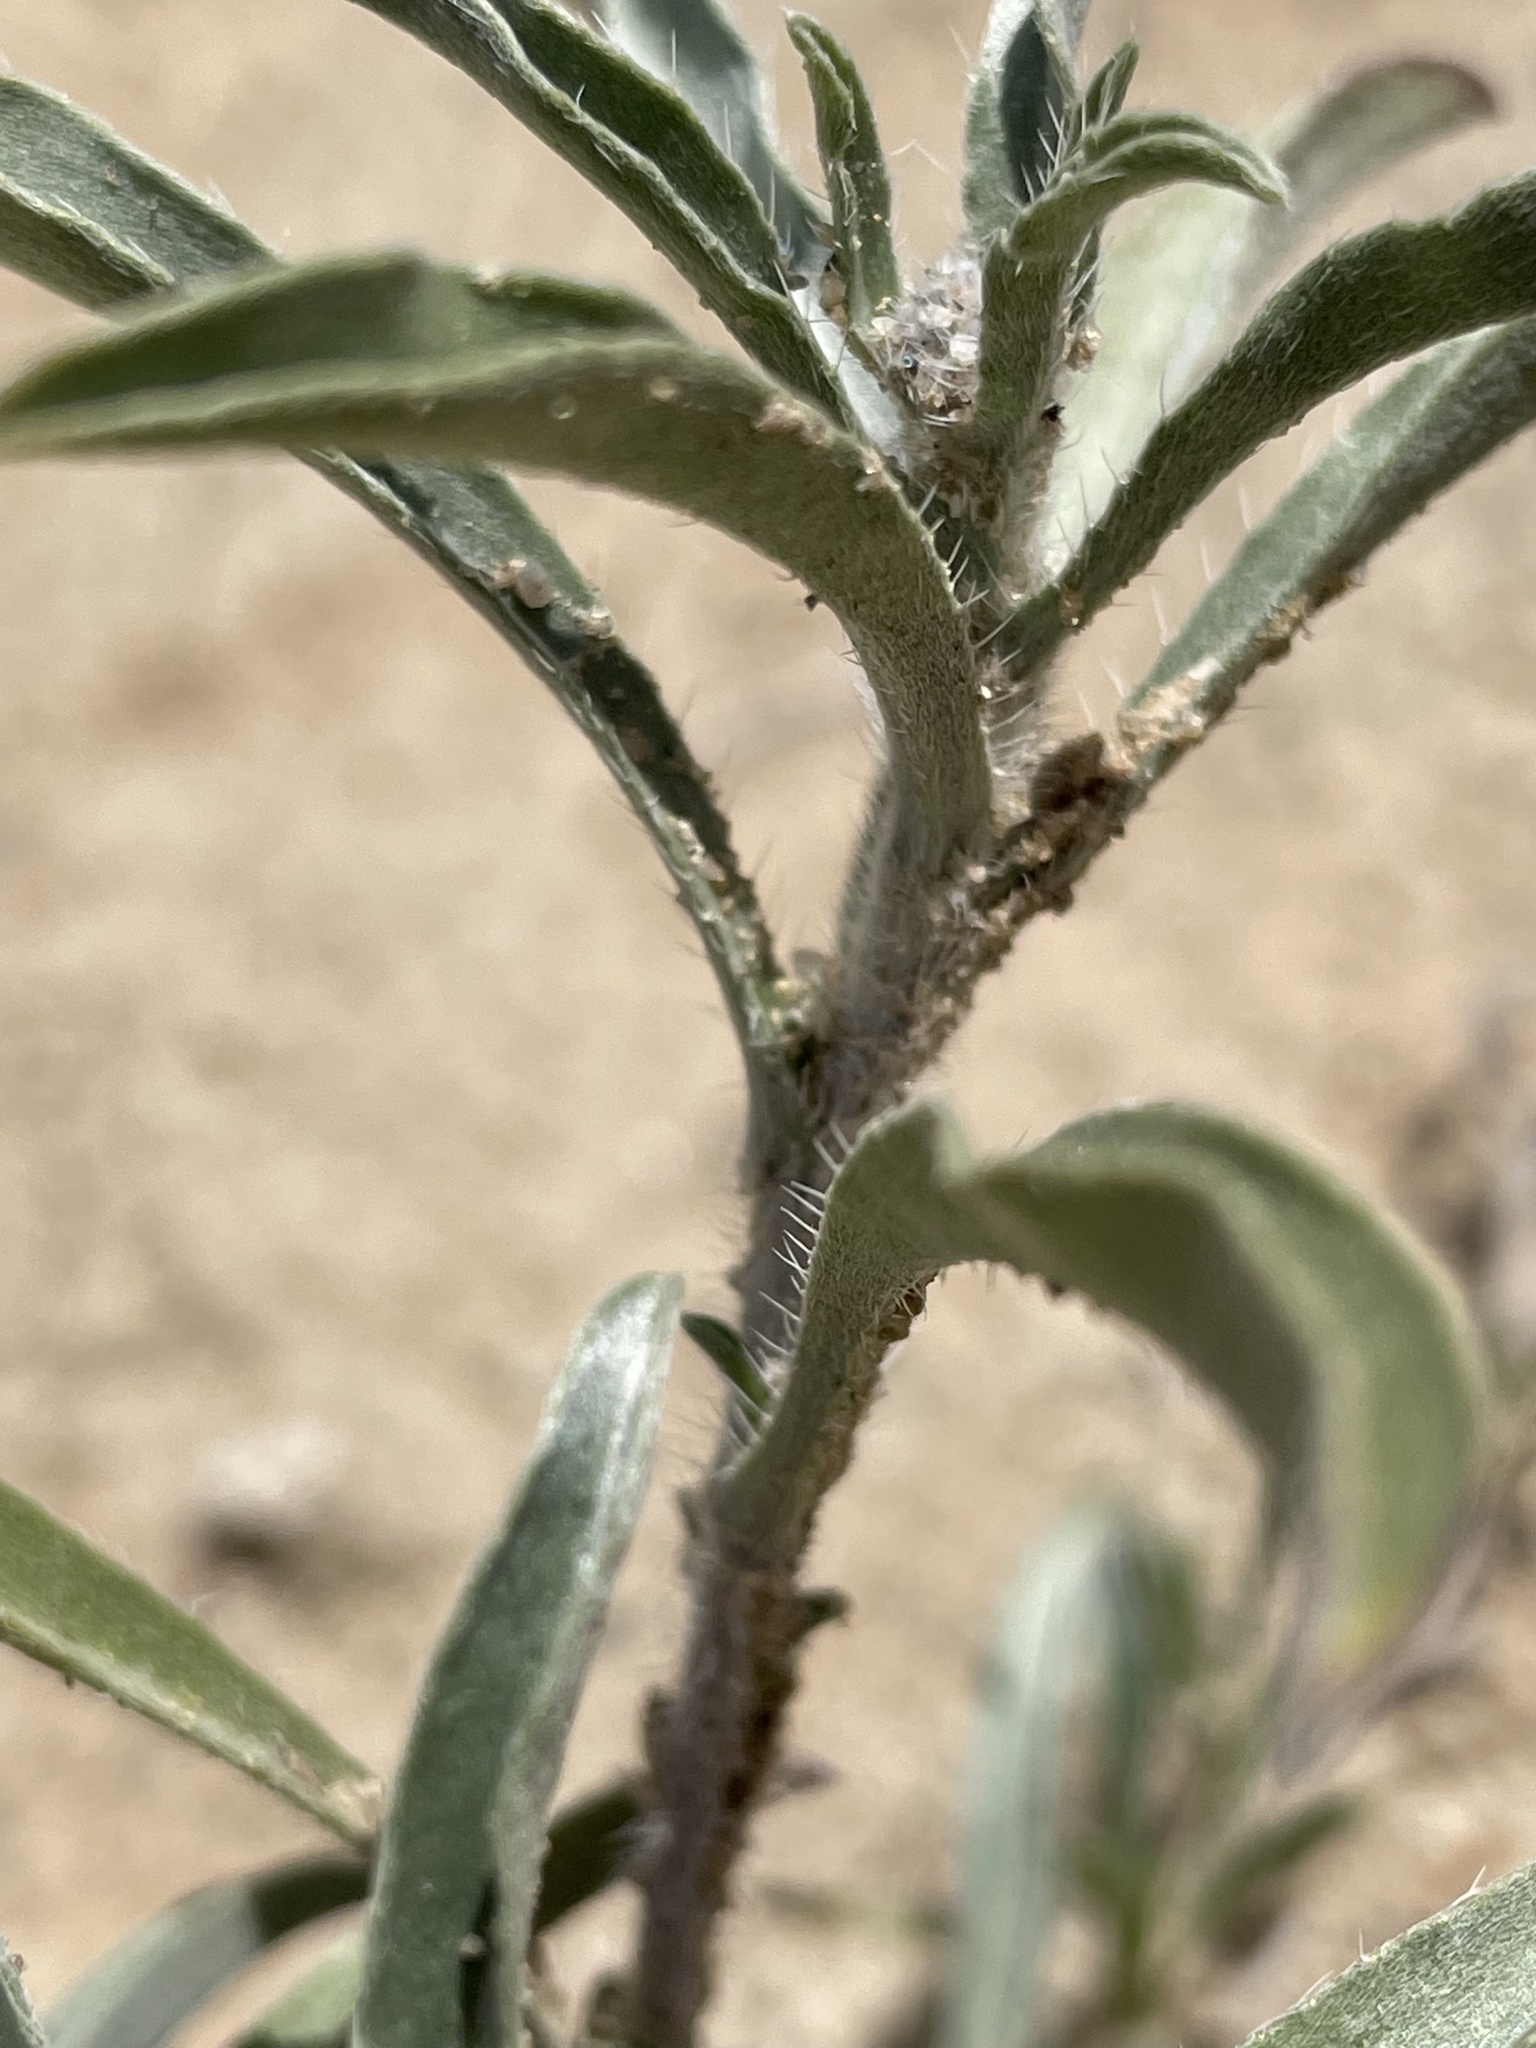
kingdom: Plantae
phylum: Tracheophyta
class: Magnoliopsida
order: Boraginales
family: Boraginaceae
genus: Oreocarya
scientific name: Oreocarya suffruticosa
